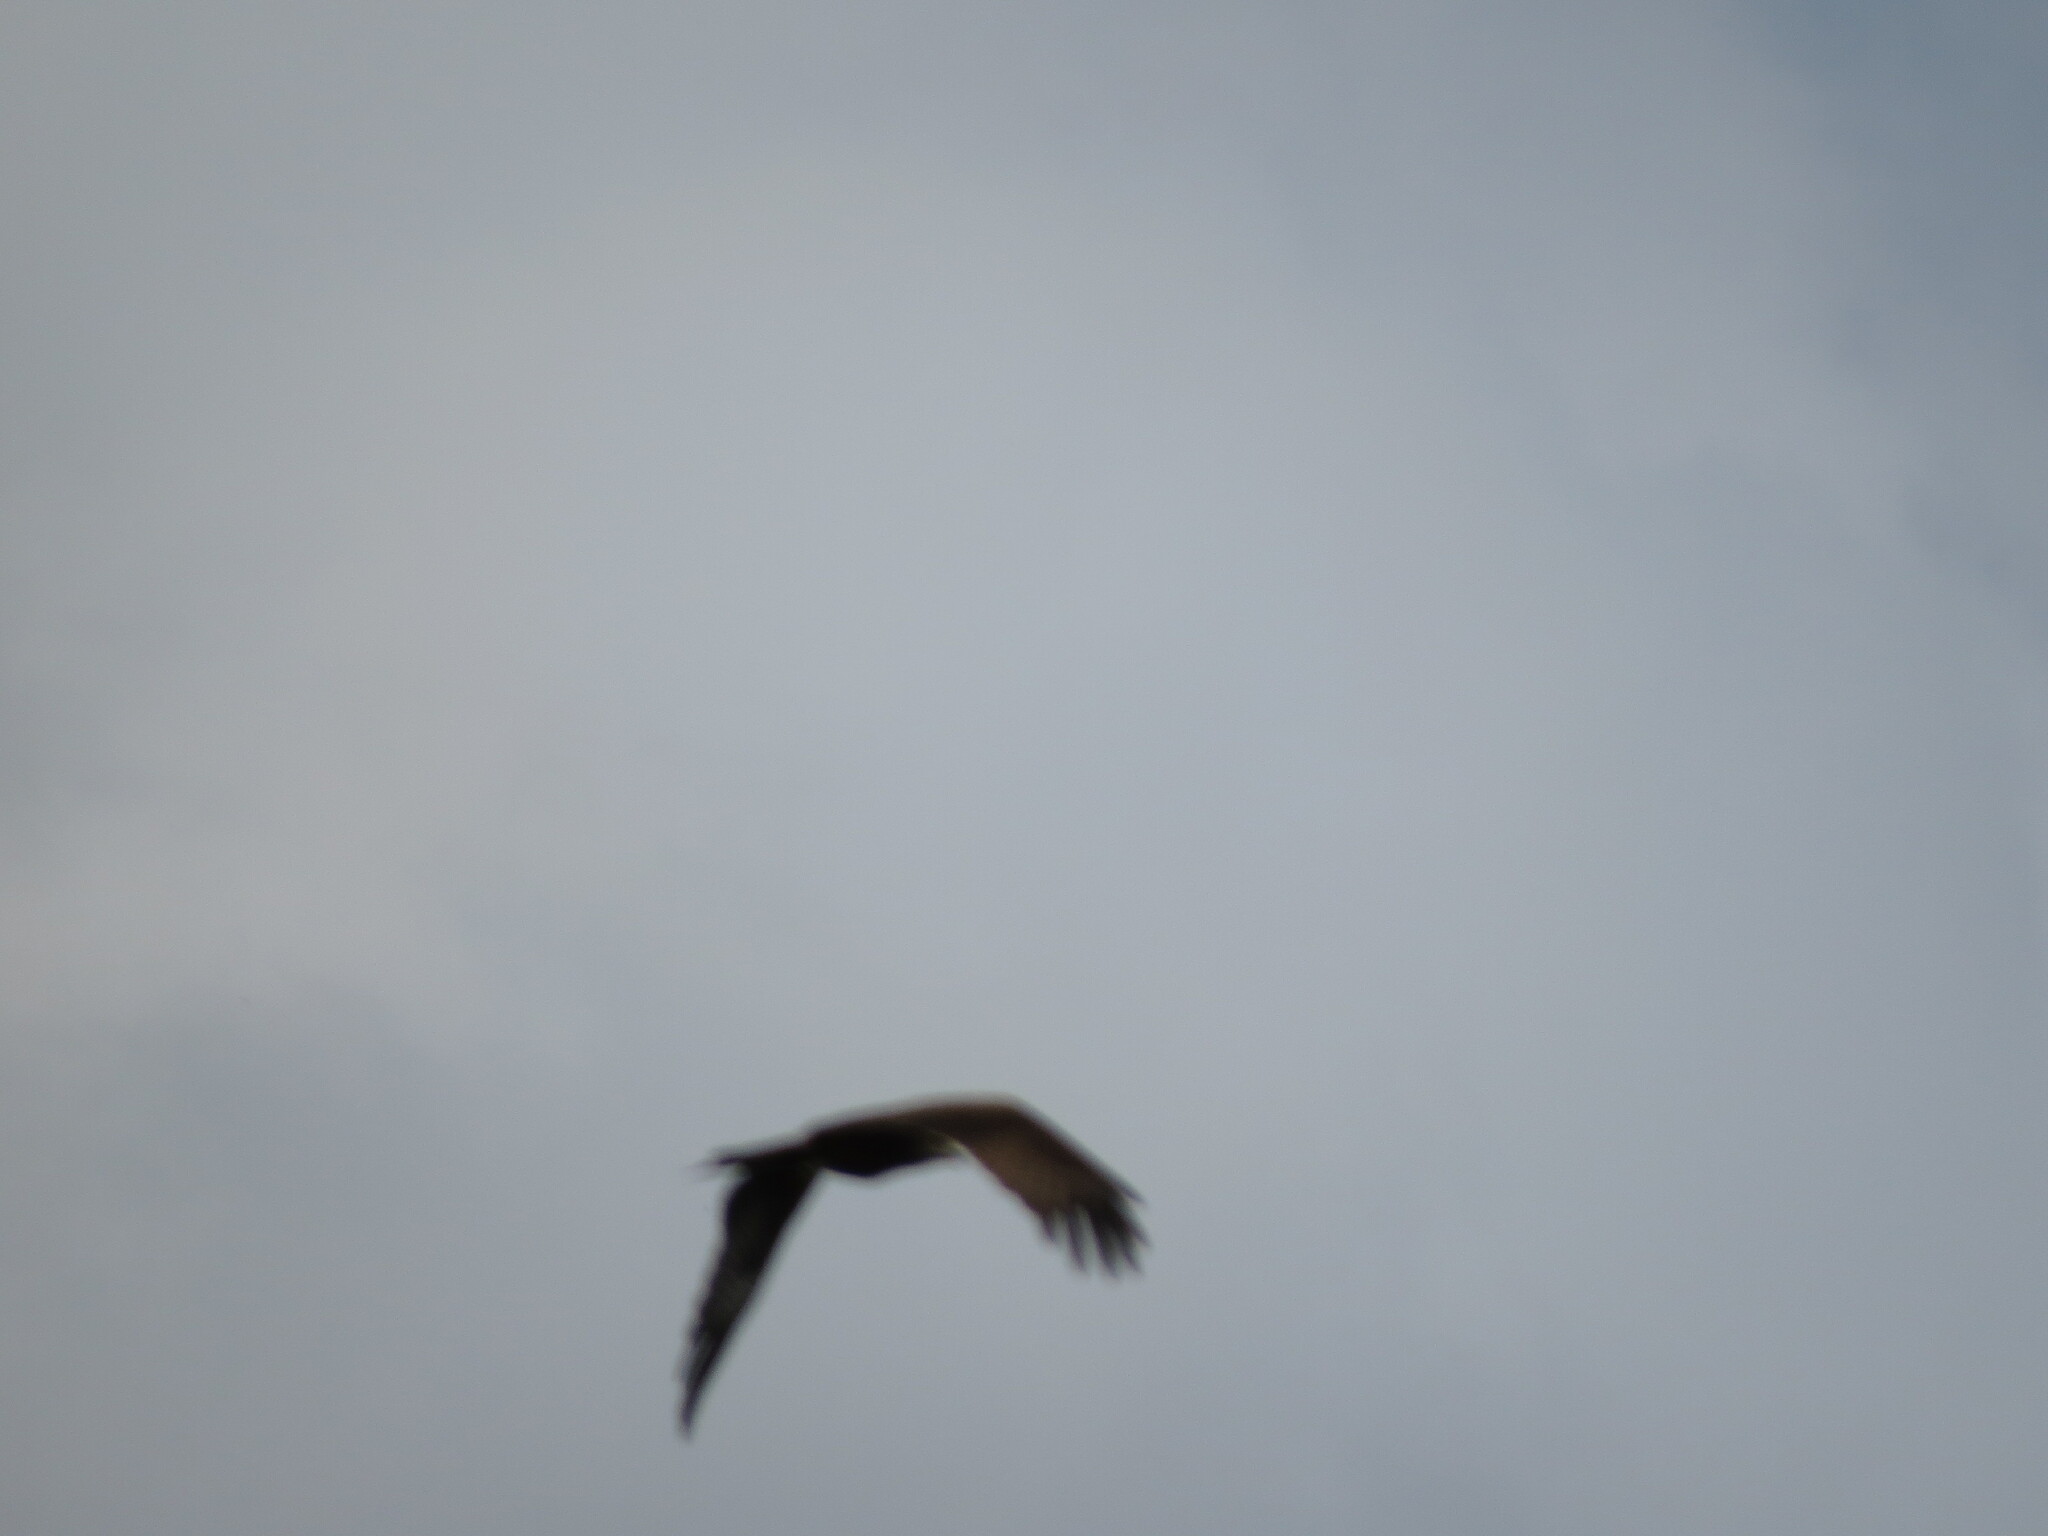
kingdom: Animalia
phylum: Chordata
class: Aves
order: Accipitriformes
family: Accipitridae
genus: Milvus
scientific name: Milvus migrans
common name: Black kite
